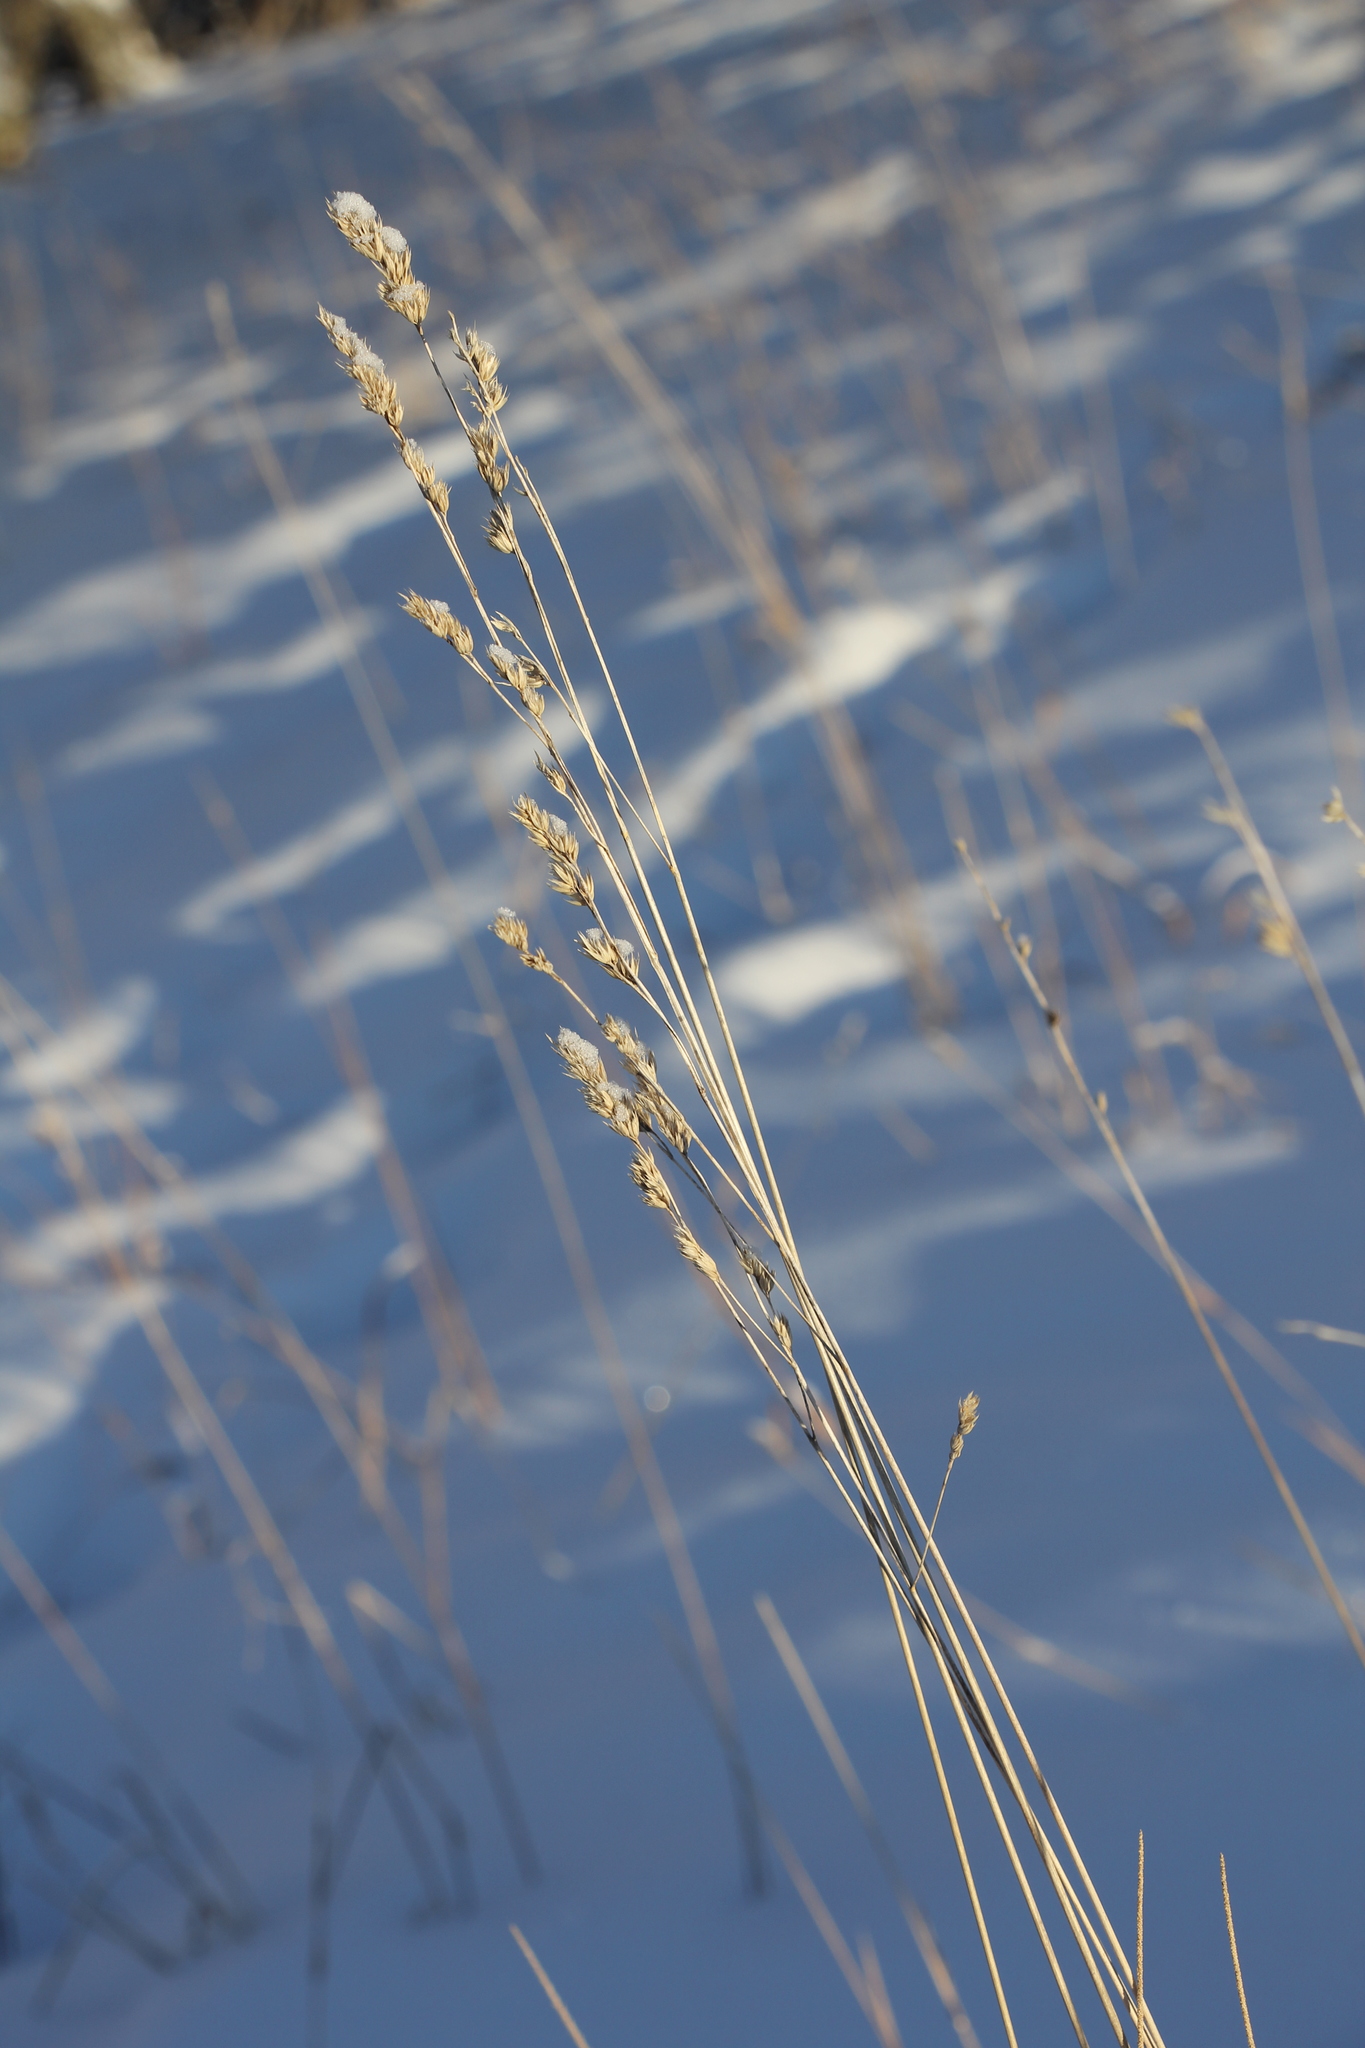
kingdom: Plantae
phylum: Tracheophyta
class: Liliopsida
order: Poales
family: Poaceae
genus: Dactylis
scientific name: Dactylis glomerata
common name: Orchardgrass
